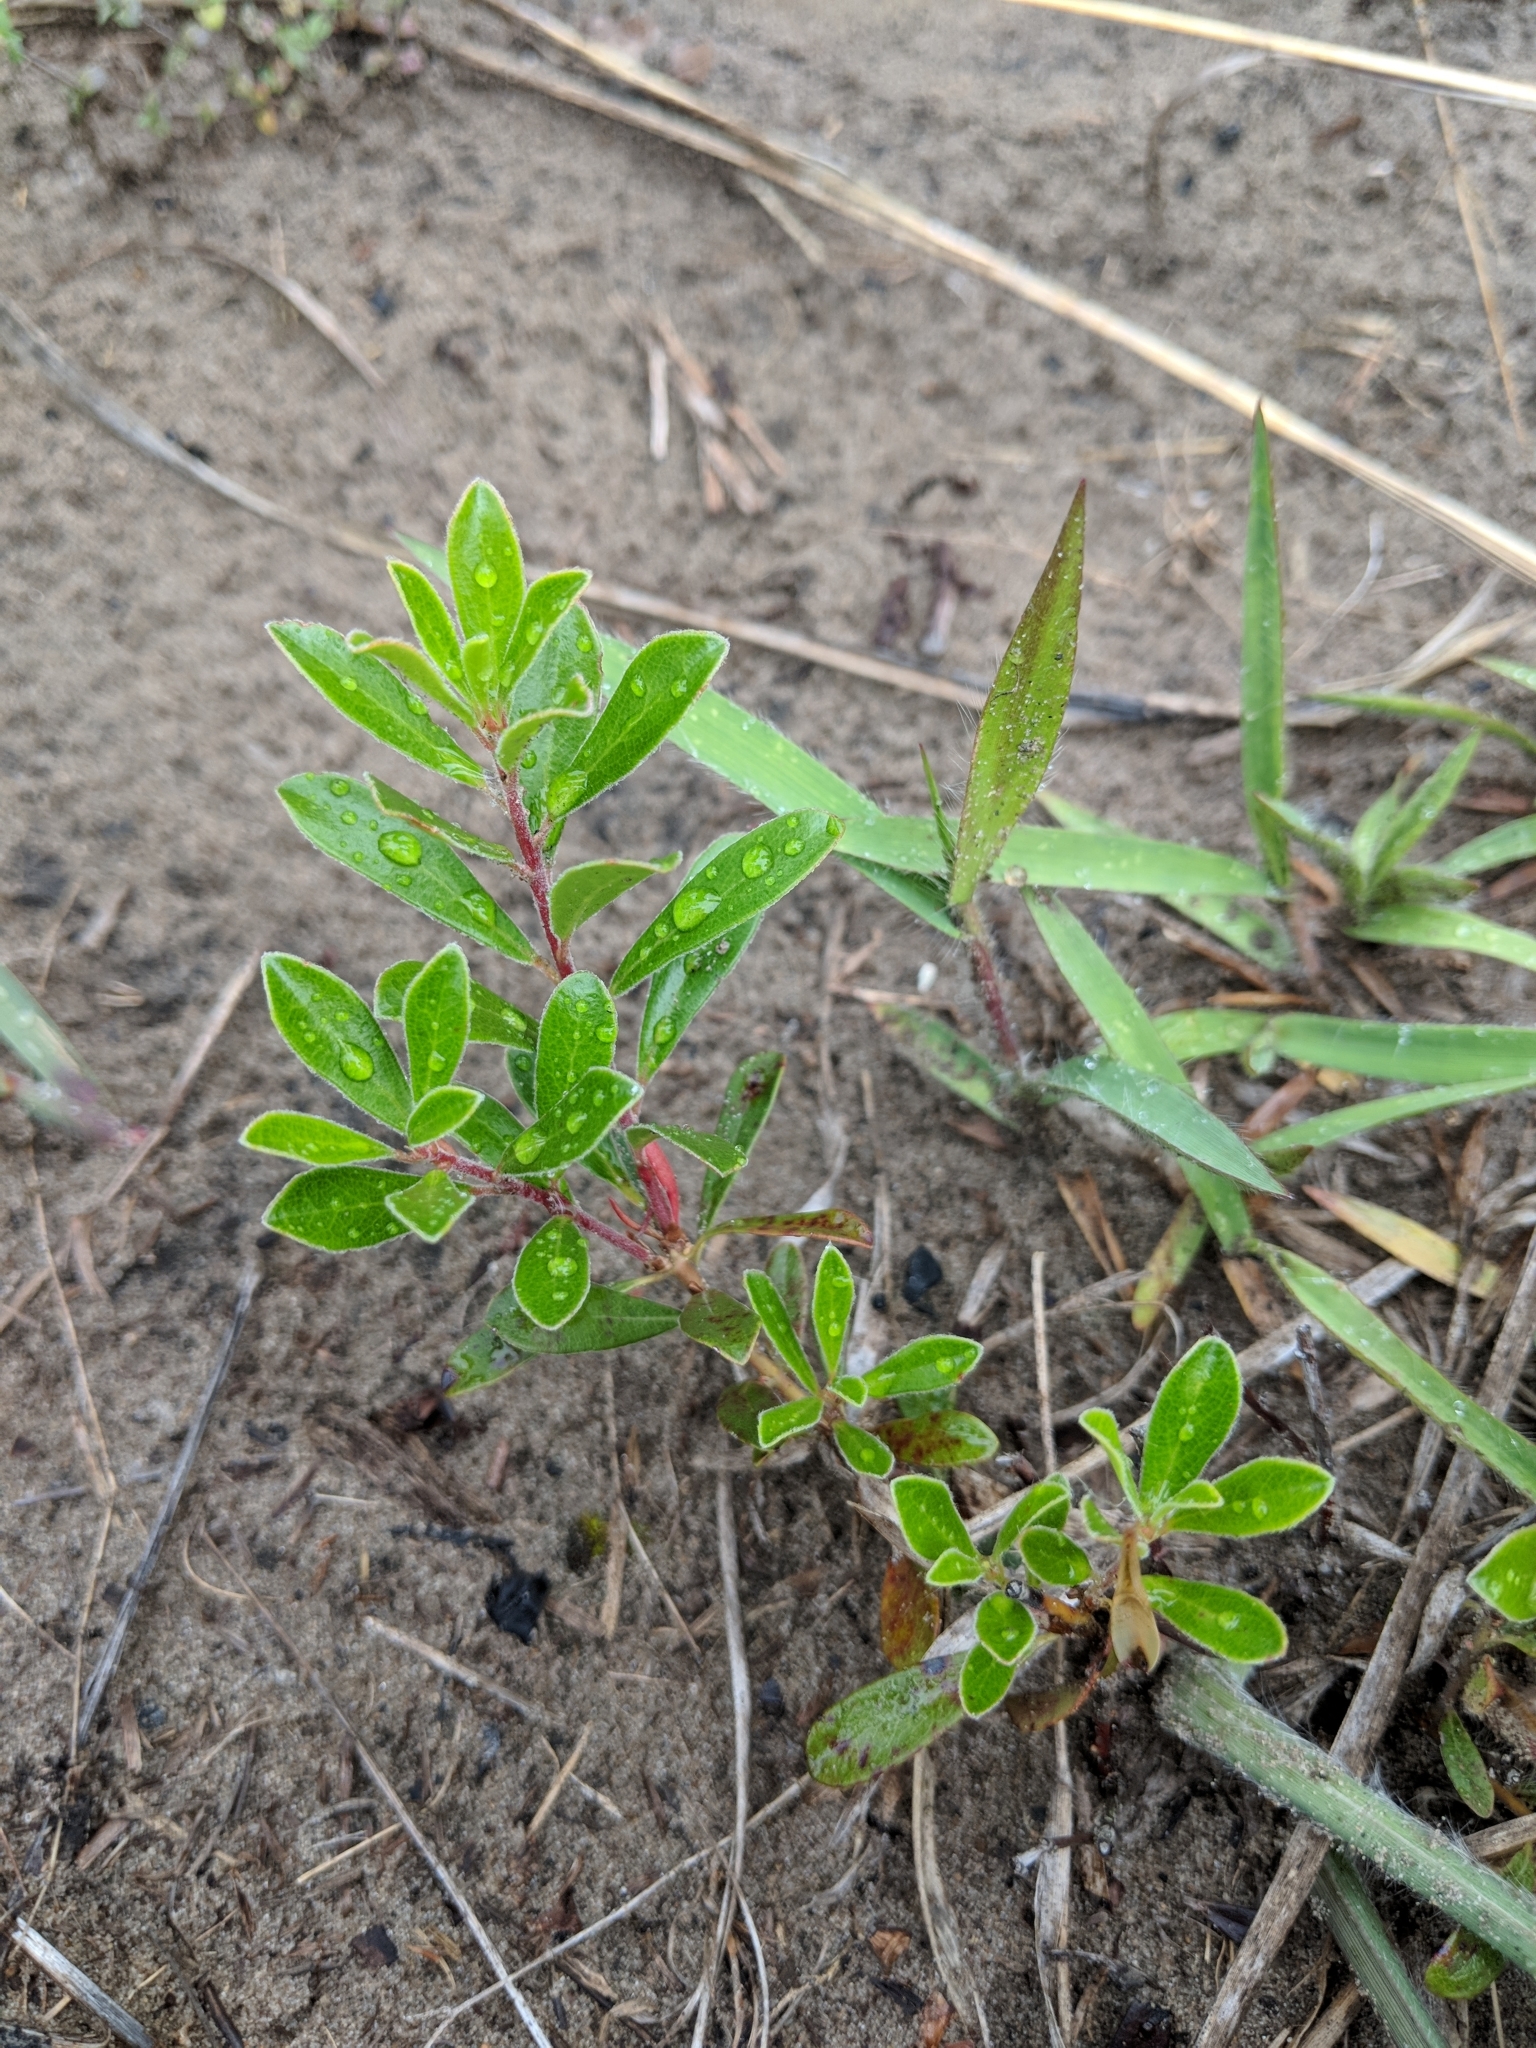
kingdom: Plantae
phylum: Tracheophyta
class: Magnoliopsida
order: Ericales
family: Ericaceae
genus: Arctostaphylos
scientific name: Arctostaphylos uva-ursi
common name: Bearberry
